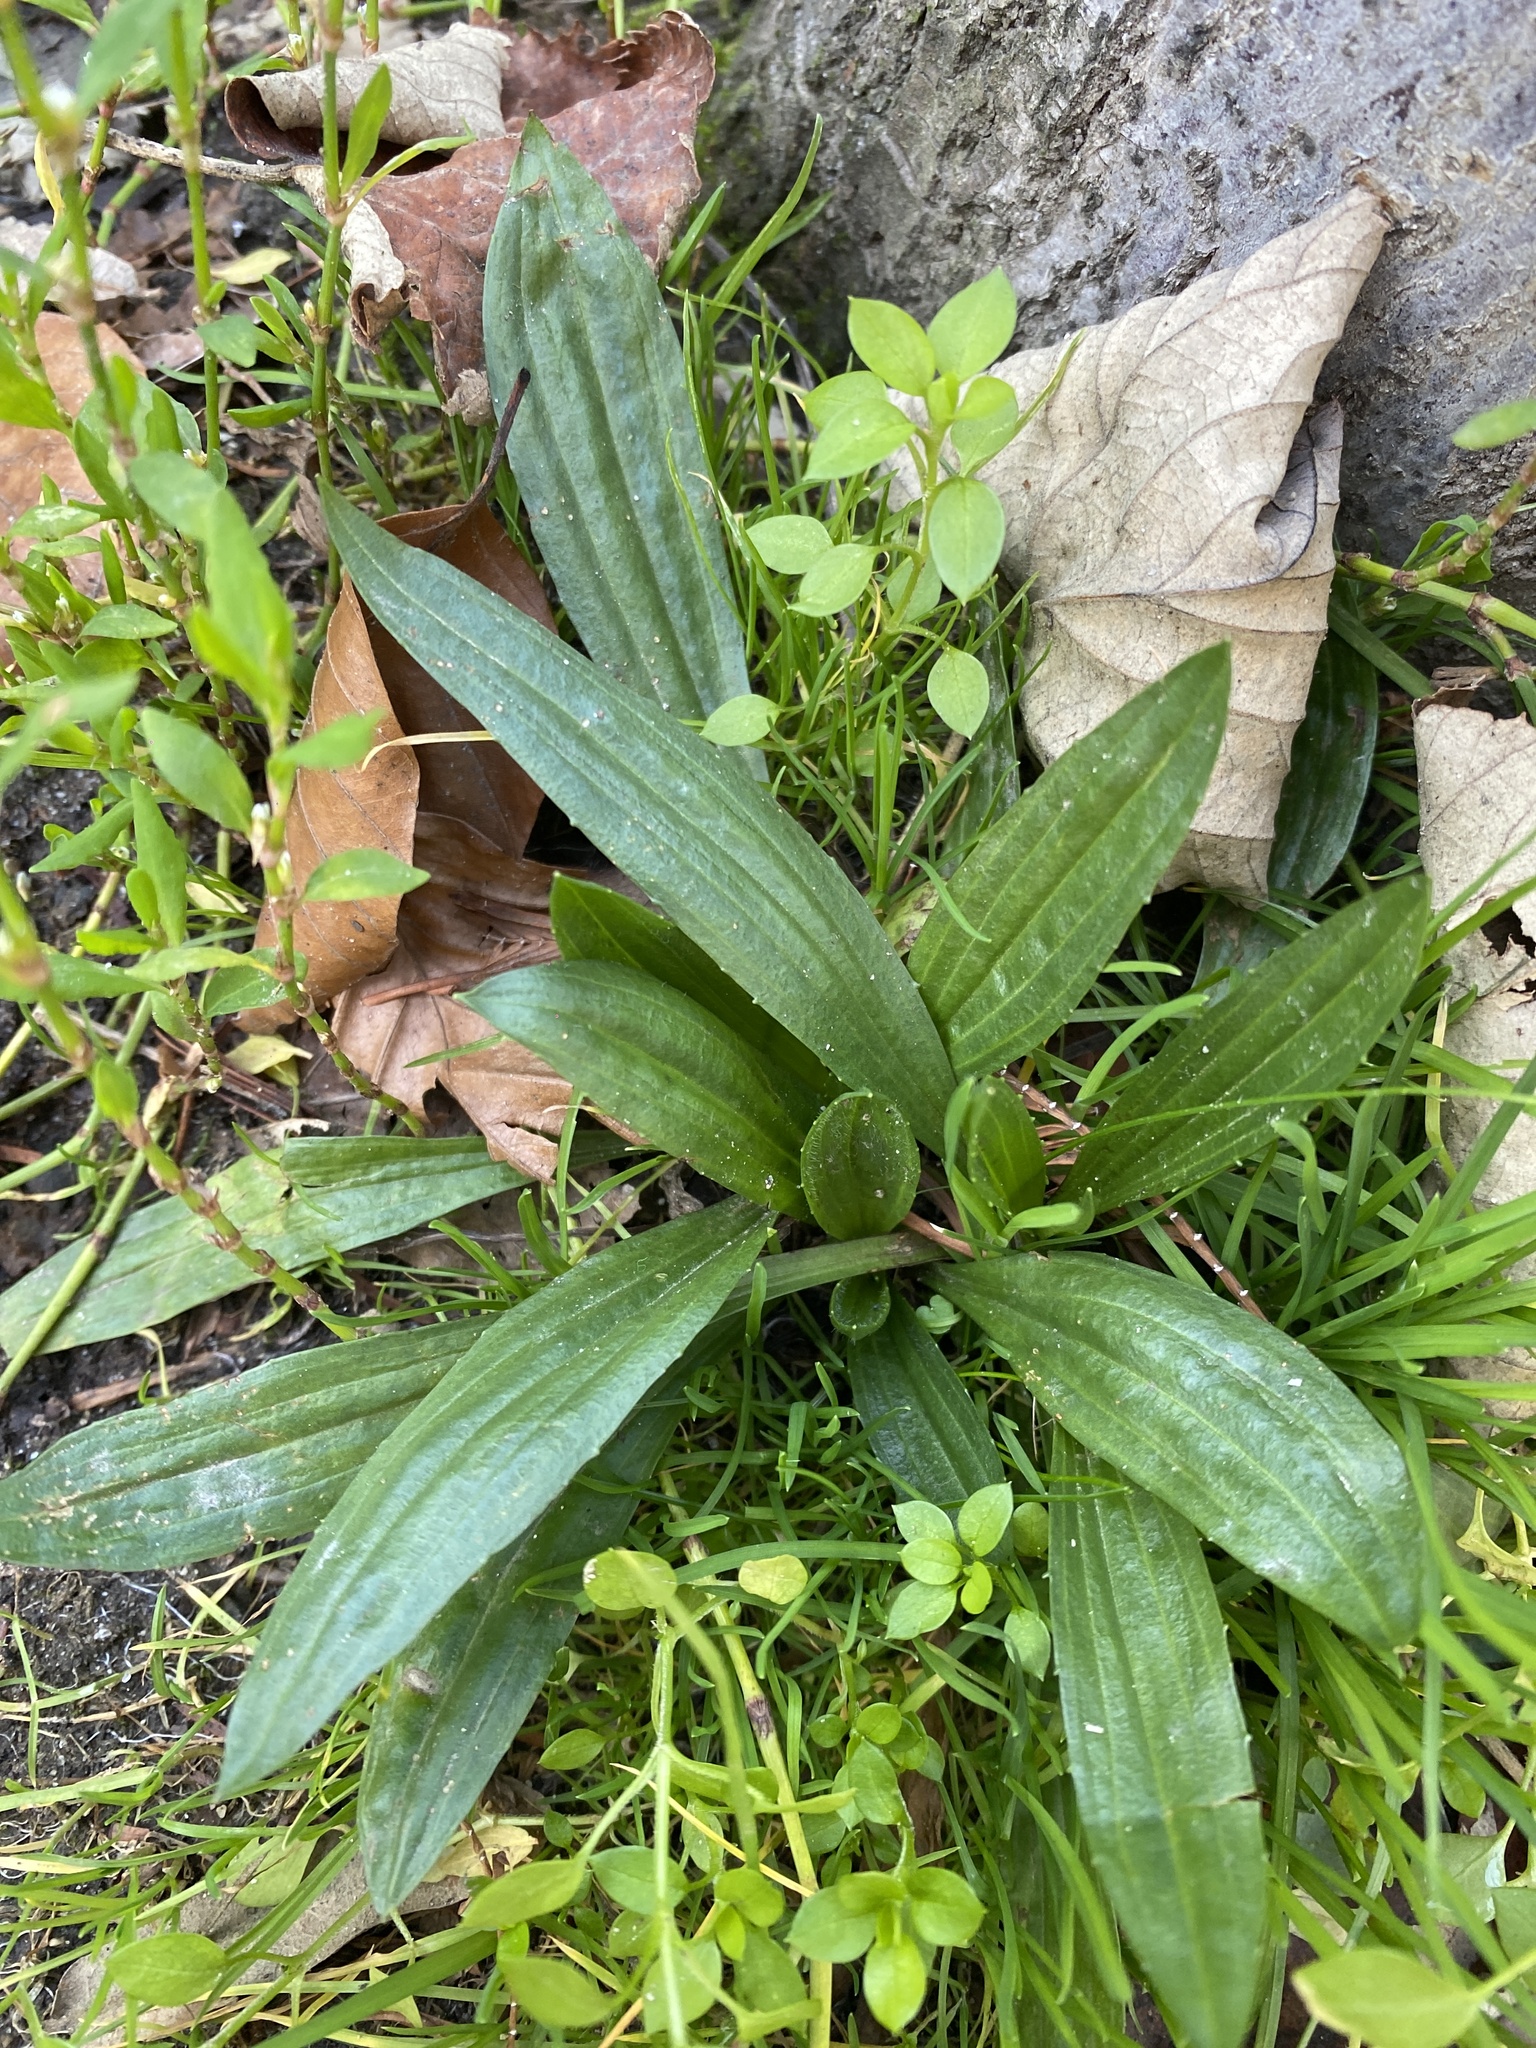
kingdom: Plantae
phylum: Tracheophyta
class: Magnoliopsida
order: Lamiales
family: Plantaginaceae
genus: Plantago
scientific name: Plantago lanceolata
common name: Ribwort plantain
